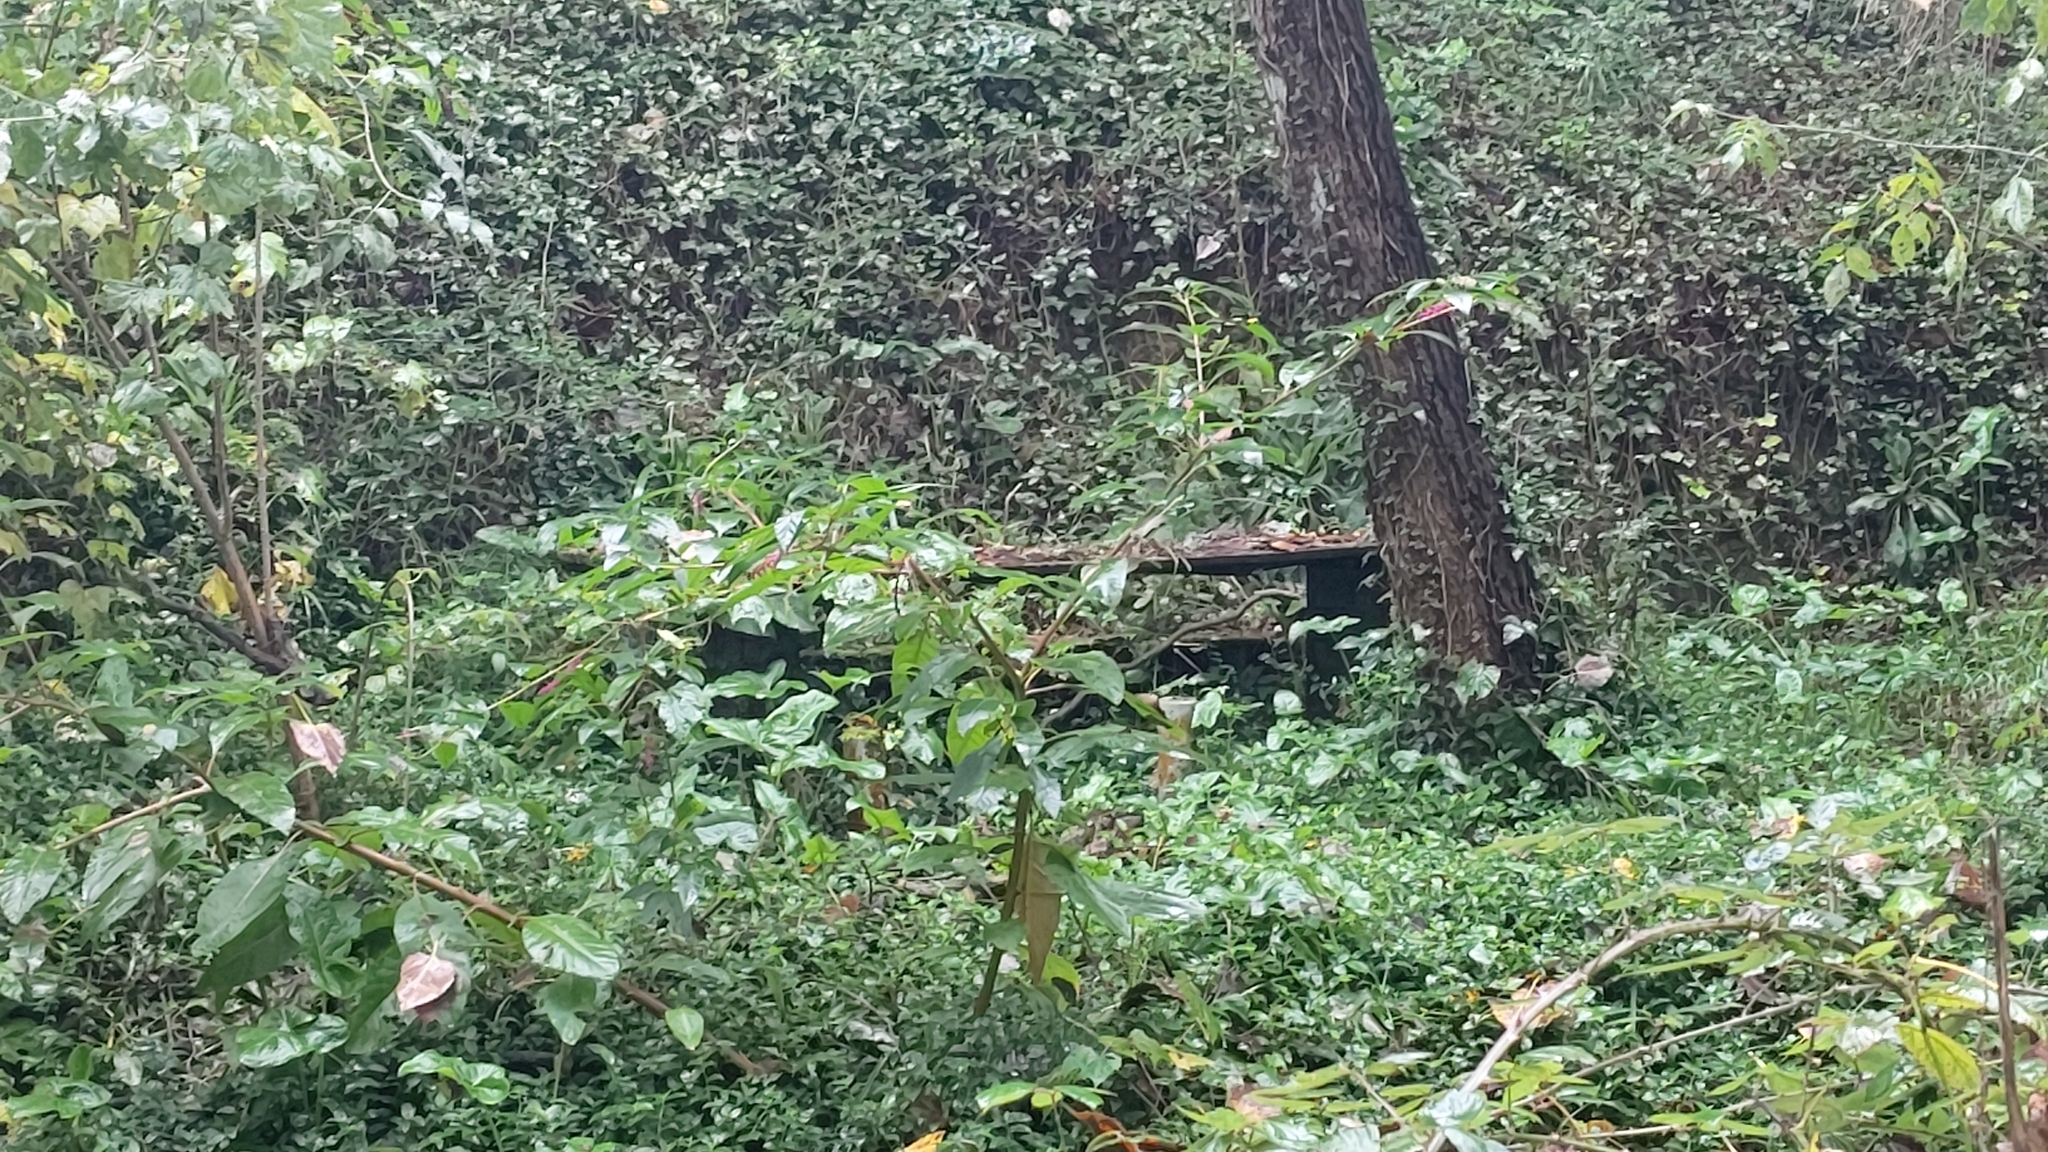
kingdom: Plantae
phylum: Tracheophyta
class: Magnoliopsida
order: Caryophyllales
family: Phytolaccaceae
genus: Phytolacca
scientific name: Phytolacca americana
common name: American pokeweed
